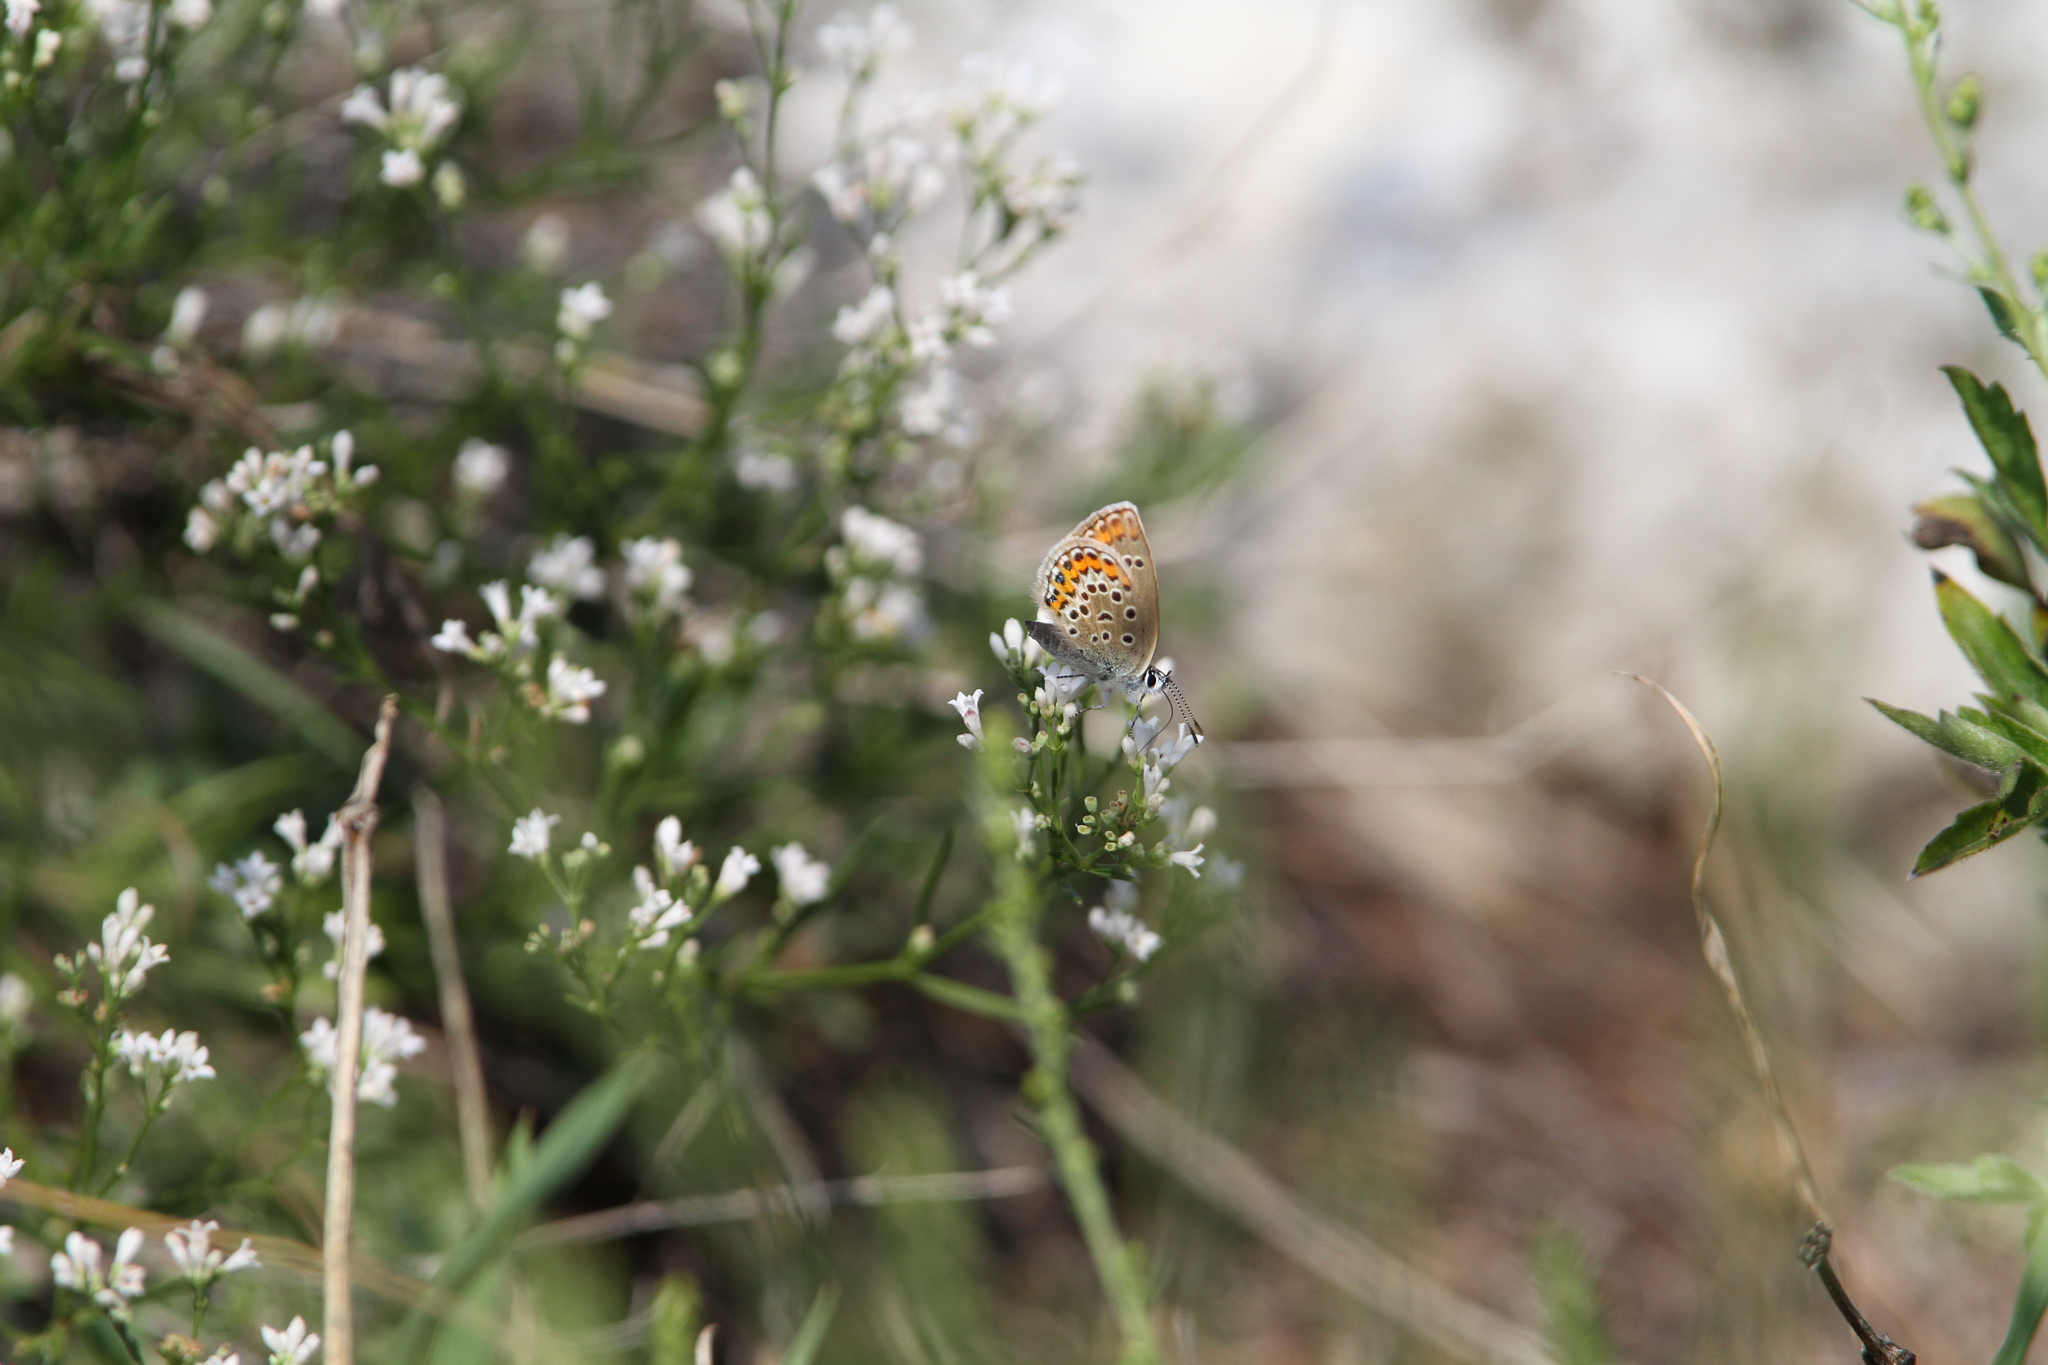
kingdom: Animalia
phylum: Arthropoda
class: Insecta
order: Lepidoptera
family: Lycaenidae
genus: Plebejus
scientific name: Plebejus argus
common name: Silver-studded blue
